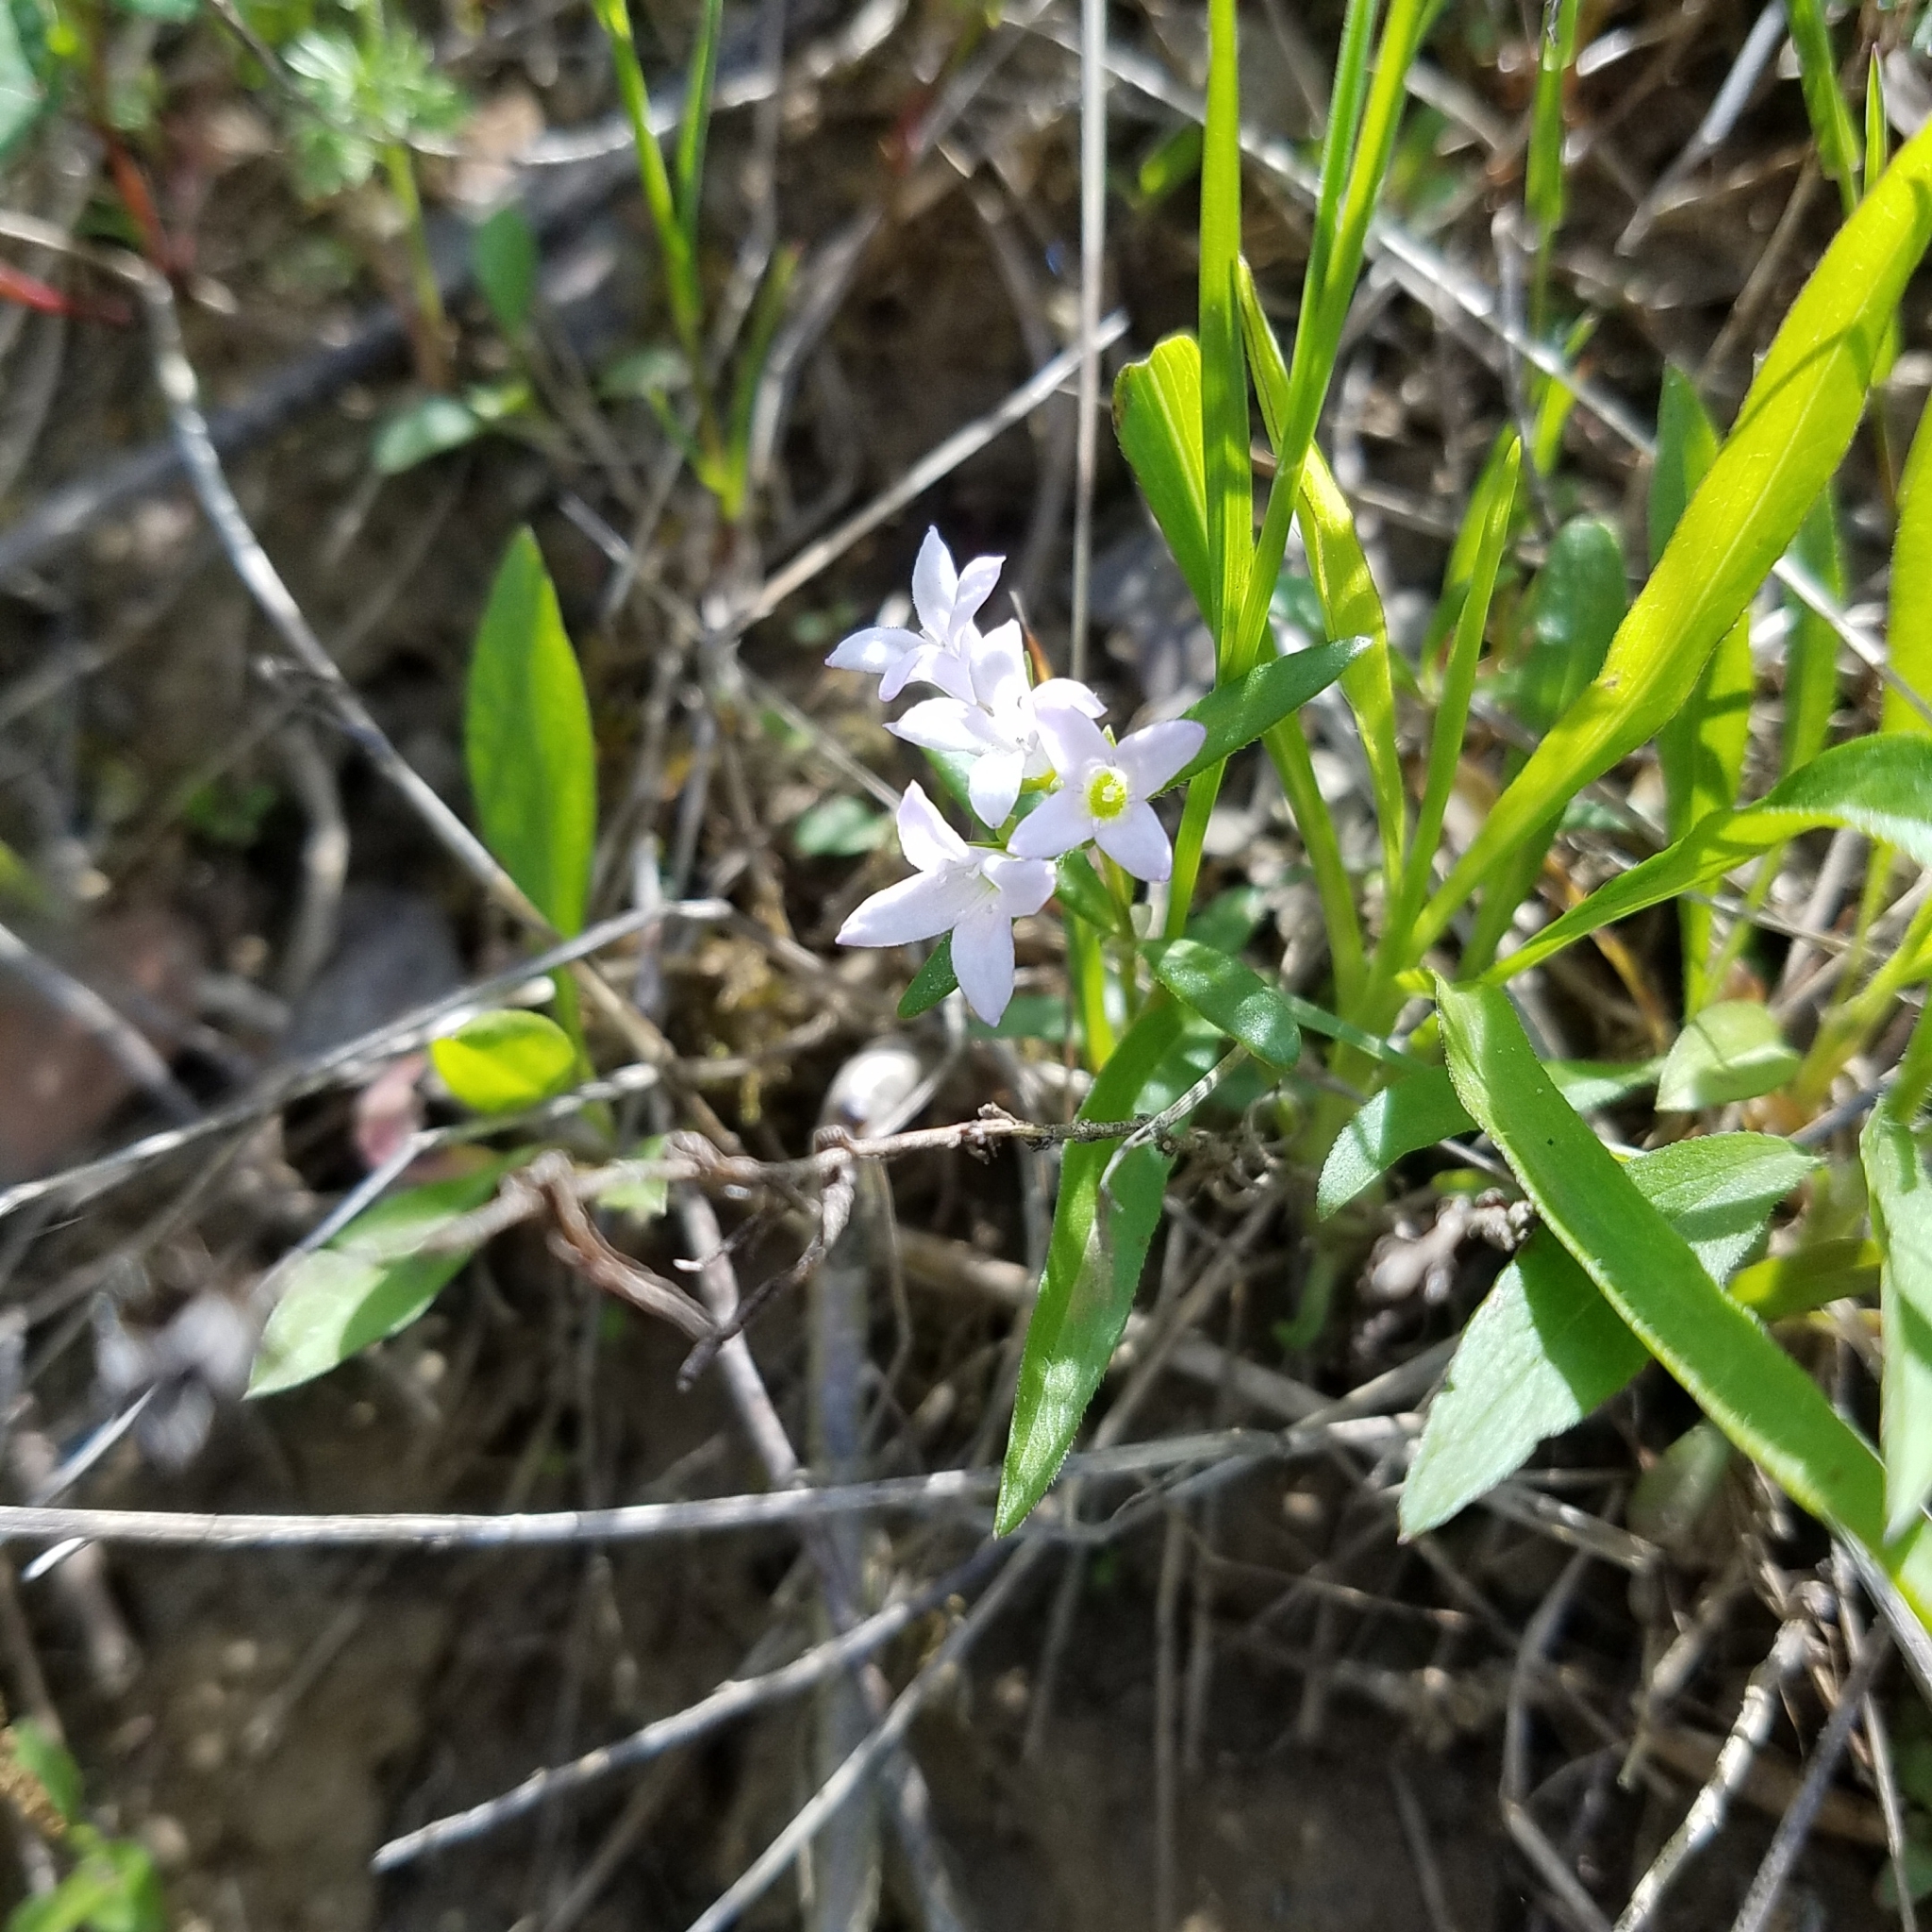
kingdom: Plantae
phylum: Tracheophyta
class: Magnoliopsida
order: Gentianales
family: Rubiaceae
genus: Houstonia
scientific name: Houstonia canadensis
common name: Fringed houstonia
